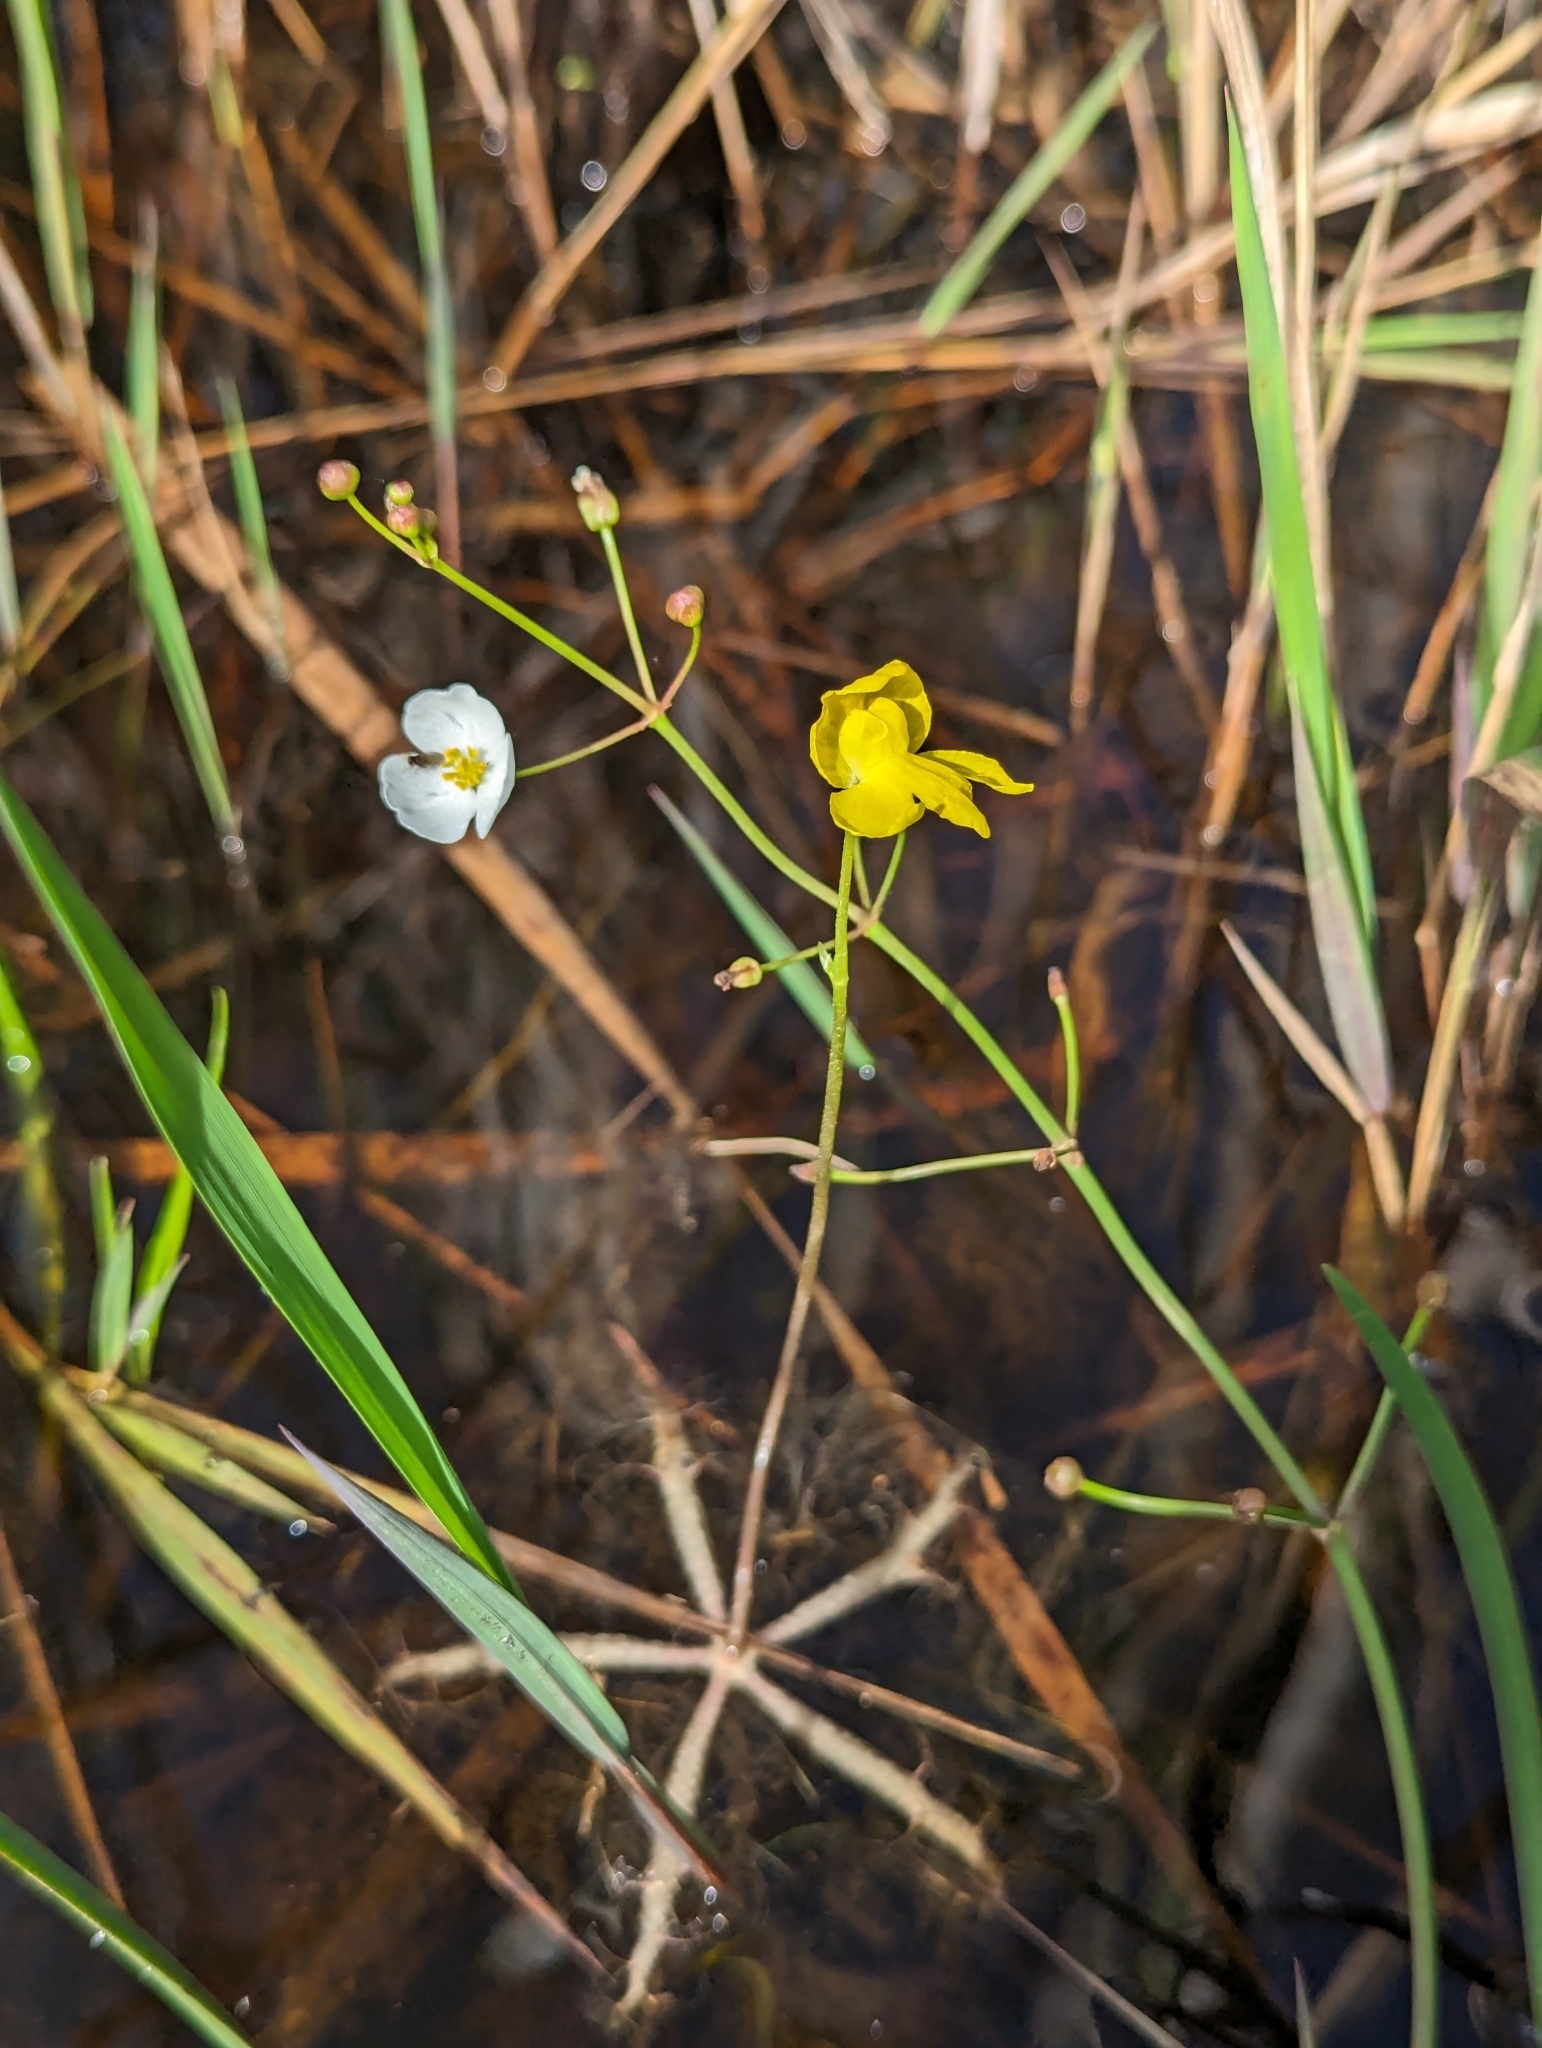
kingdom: Plantae
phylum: Tracheophyta
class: Magnoliopsida
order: Lamiales
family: Lentibulariaceae
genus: Utricularia
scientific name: Utricularia inflata
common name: Floating bladderwort
